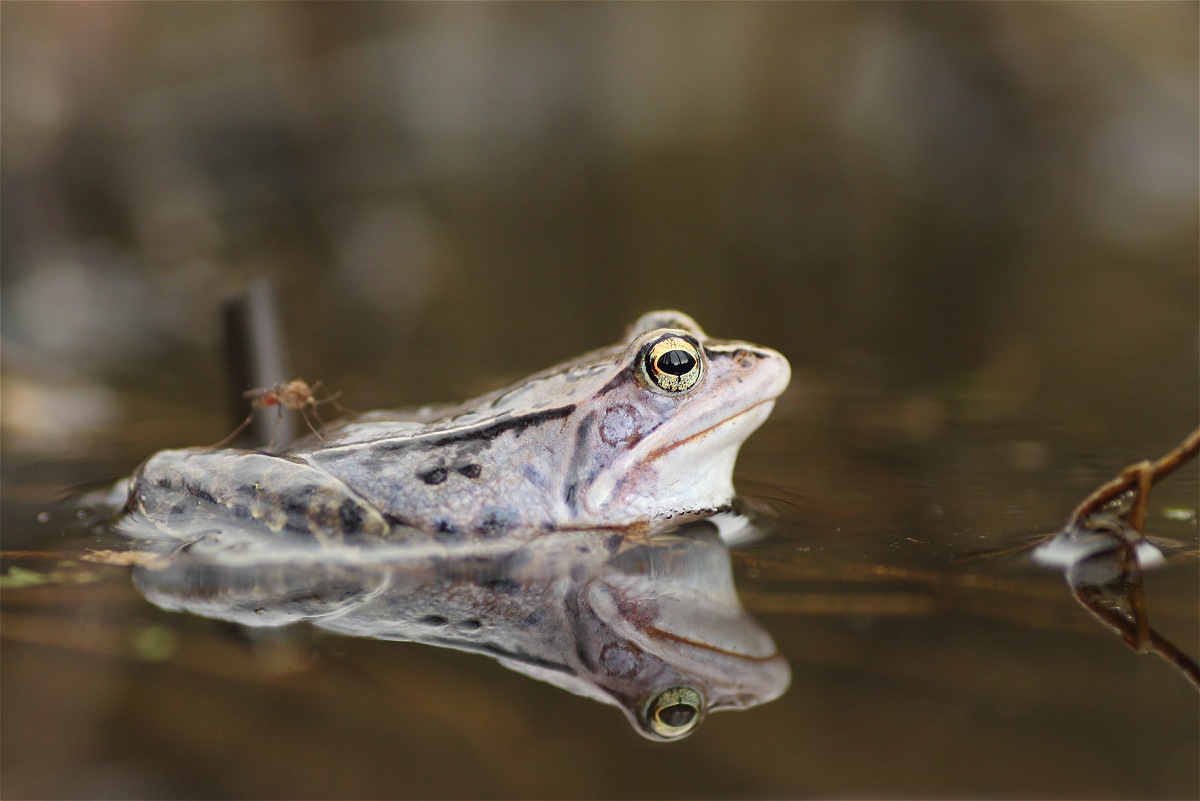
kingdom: Animalia
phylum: Chordata
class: Amphibia
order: Anura
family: Ranidae
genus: Rana
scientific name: Rana arvalis
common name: Moor frog
